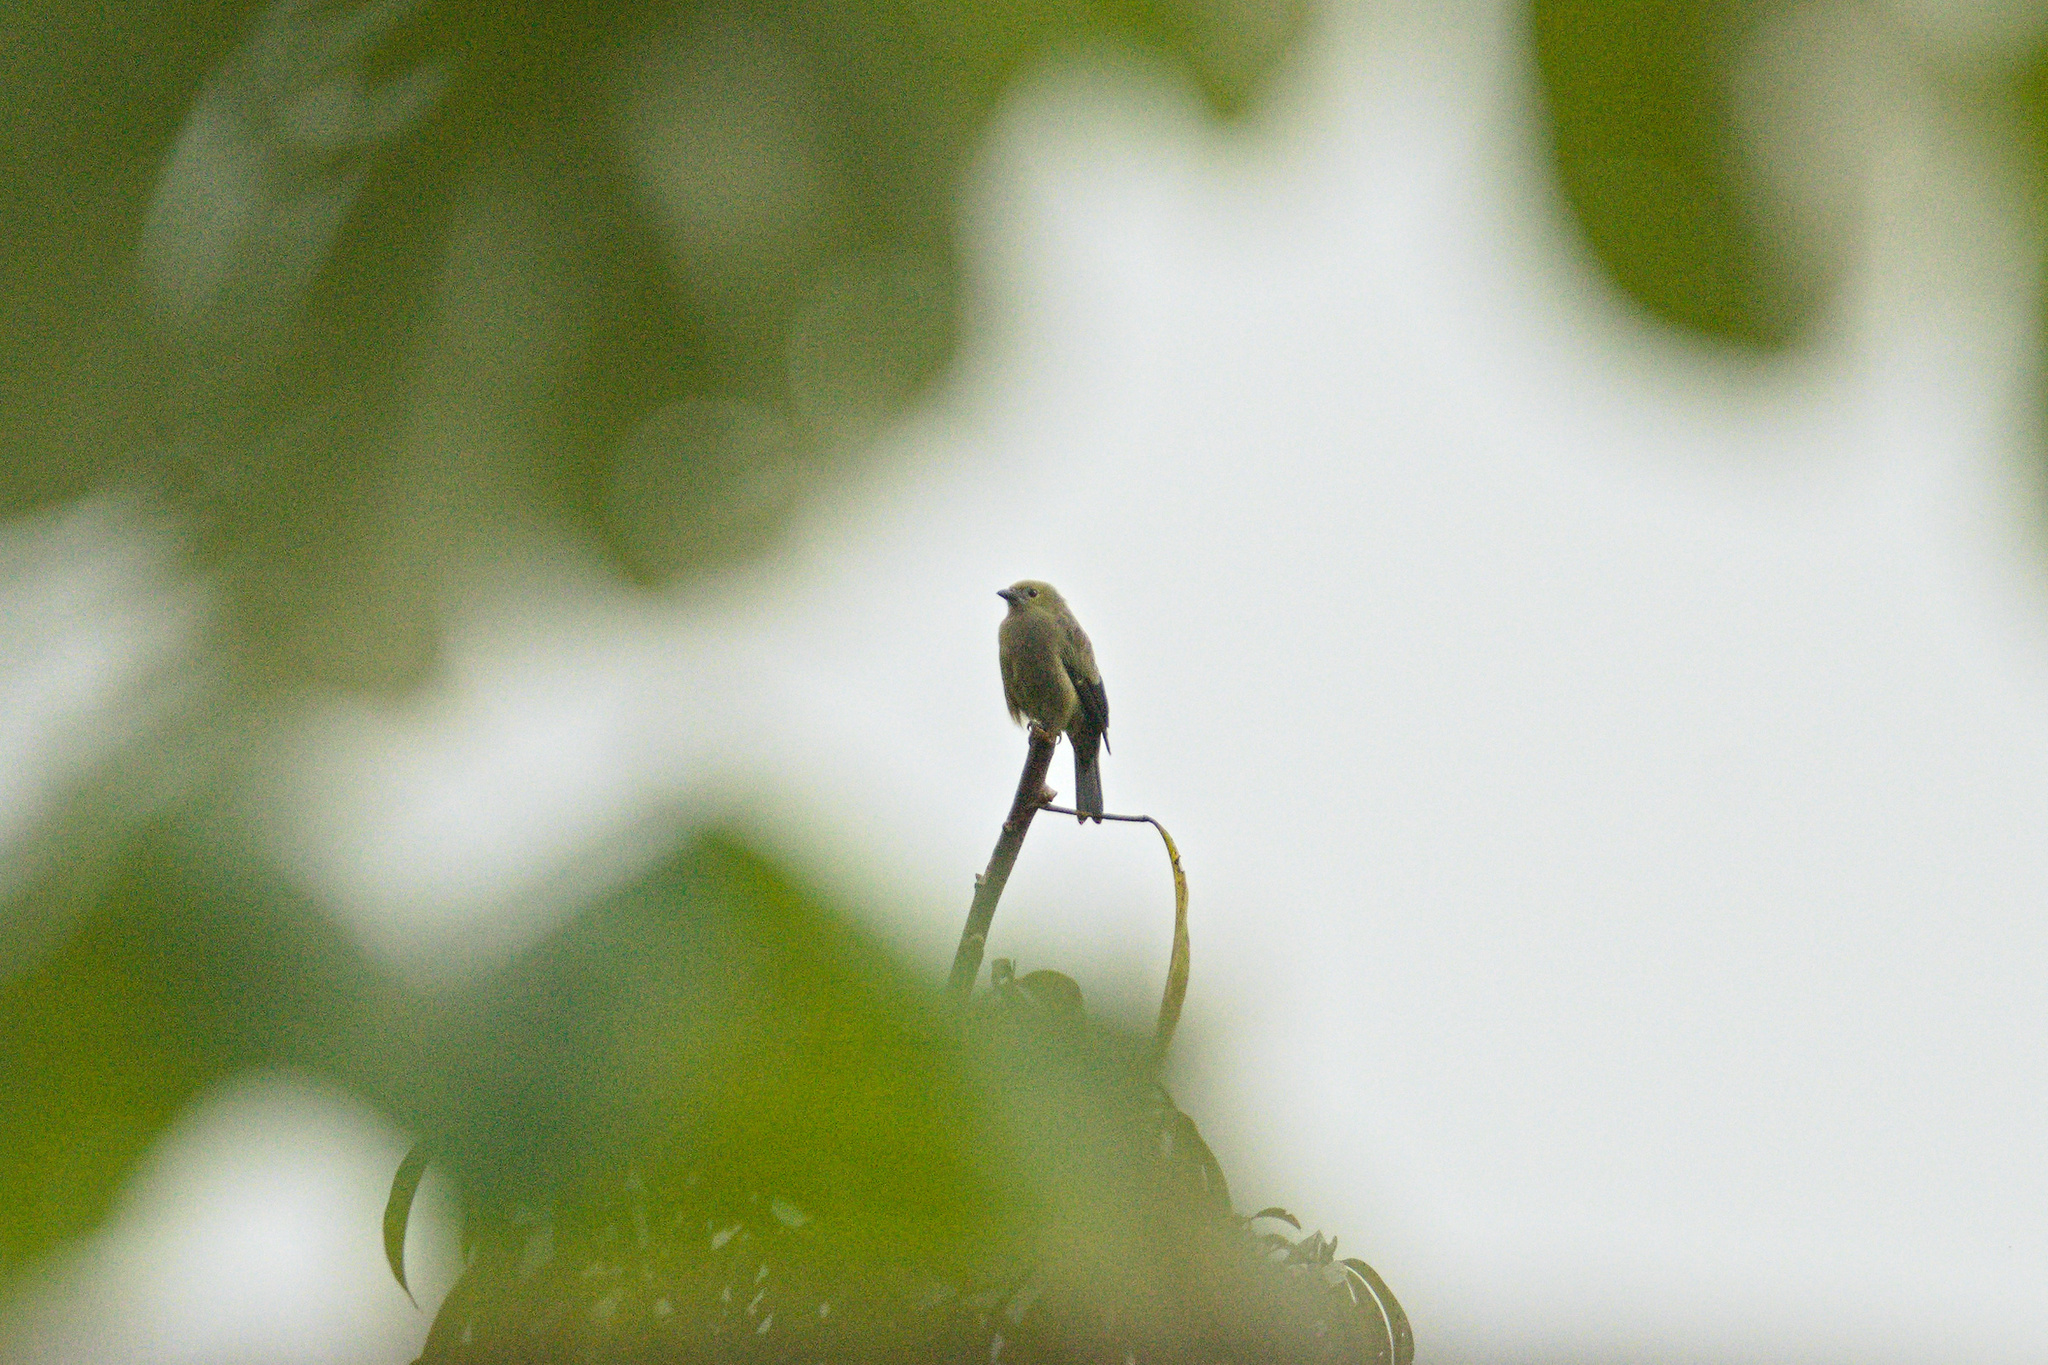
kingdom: Animalia
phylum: Chordata
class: Aves
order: Passeriformes
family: Thraupidae
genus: Thraupis
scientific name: Thraupis palmarum
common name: Palm tanager
